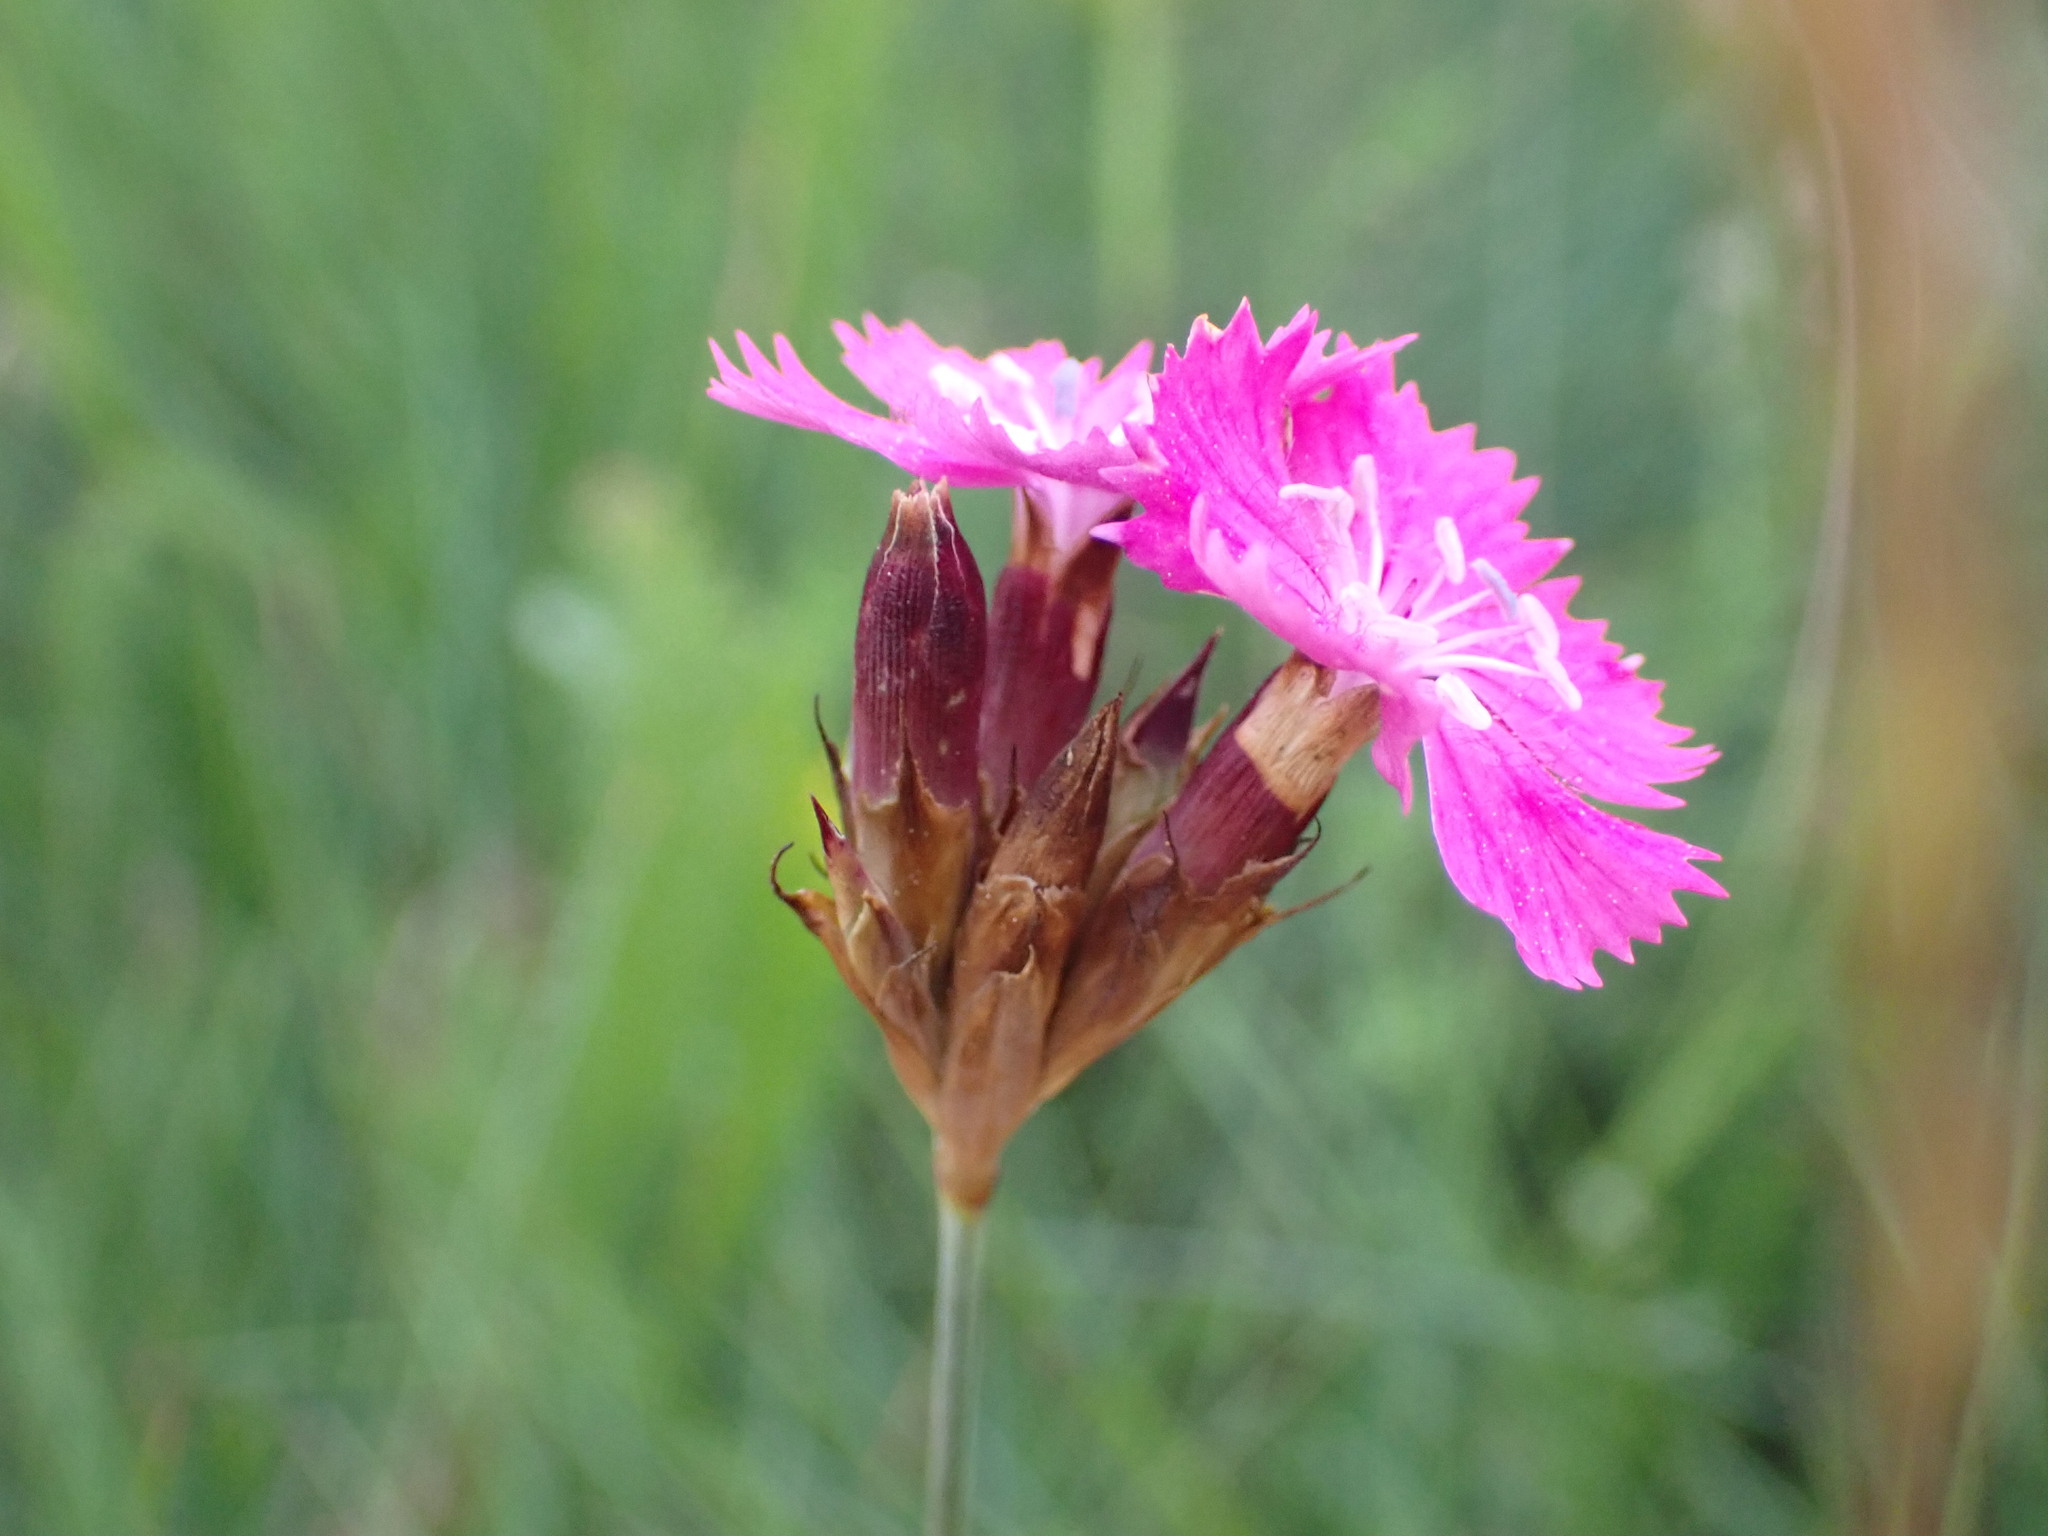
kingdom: Plantae
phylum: Tracheophyta
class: Magnoliopsida
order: Caryophyllales
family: Caryophyllaceae
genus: Dianthus
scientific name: Dianthus carthusianorum
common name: Carthusian pink
